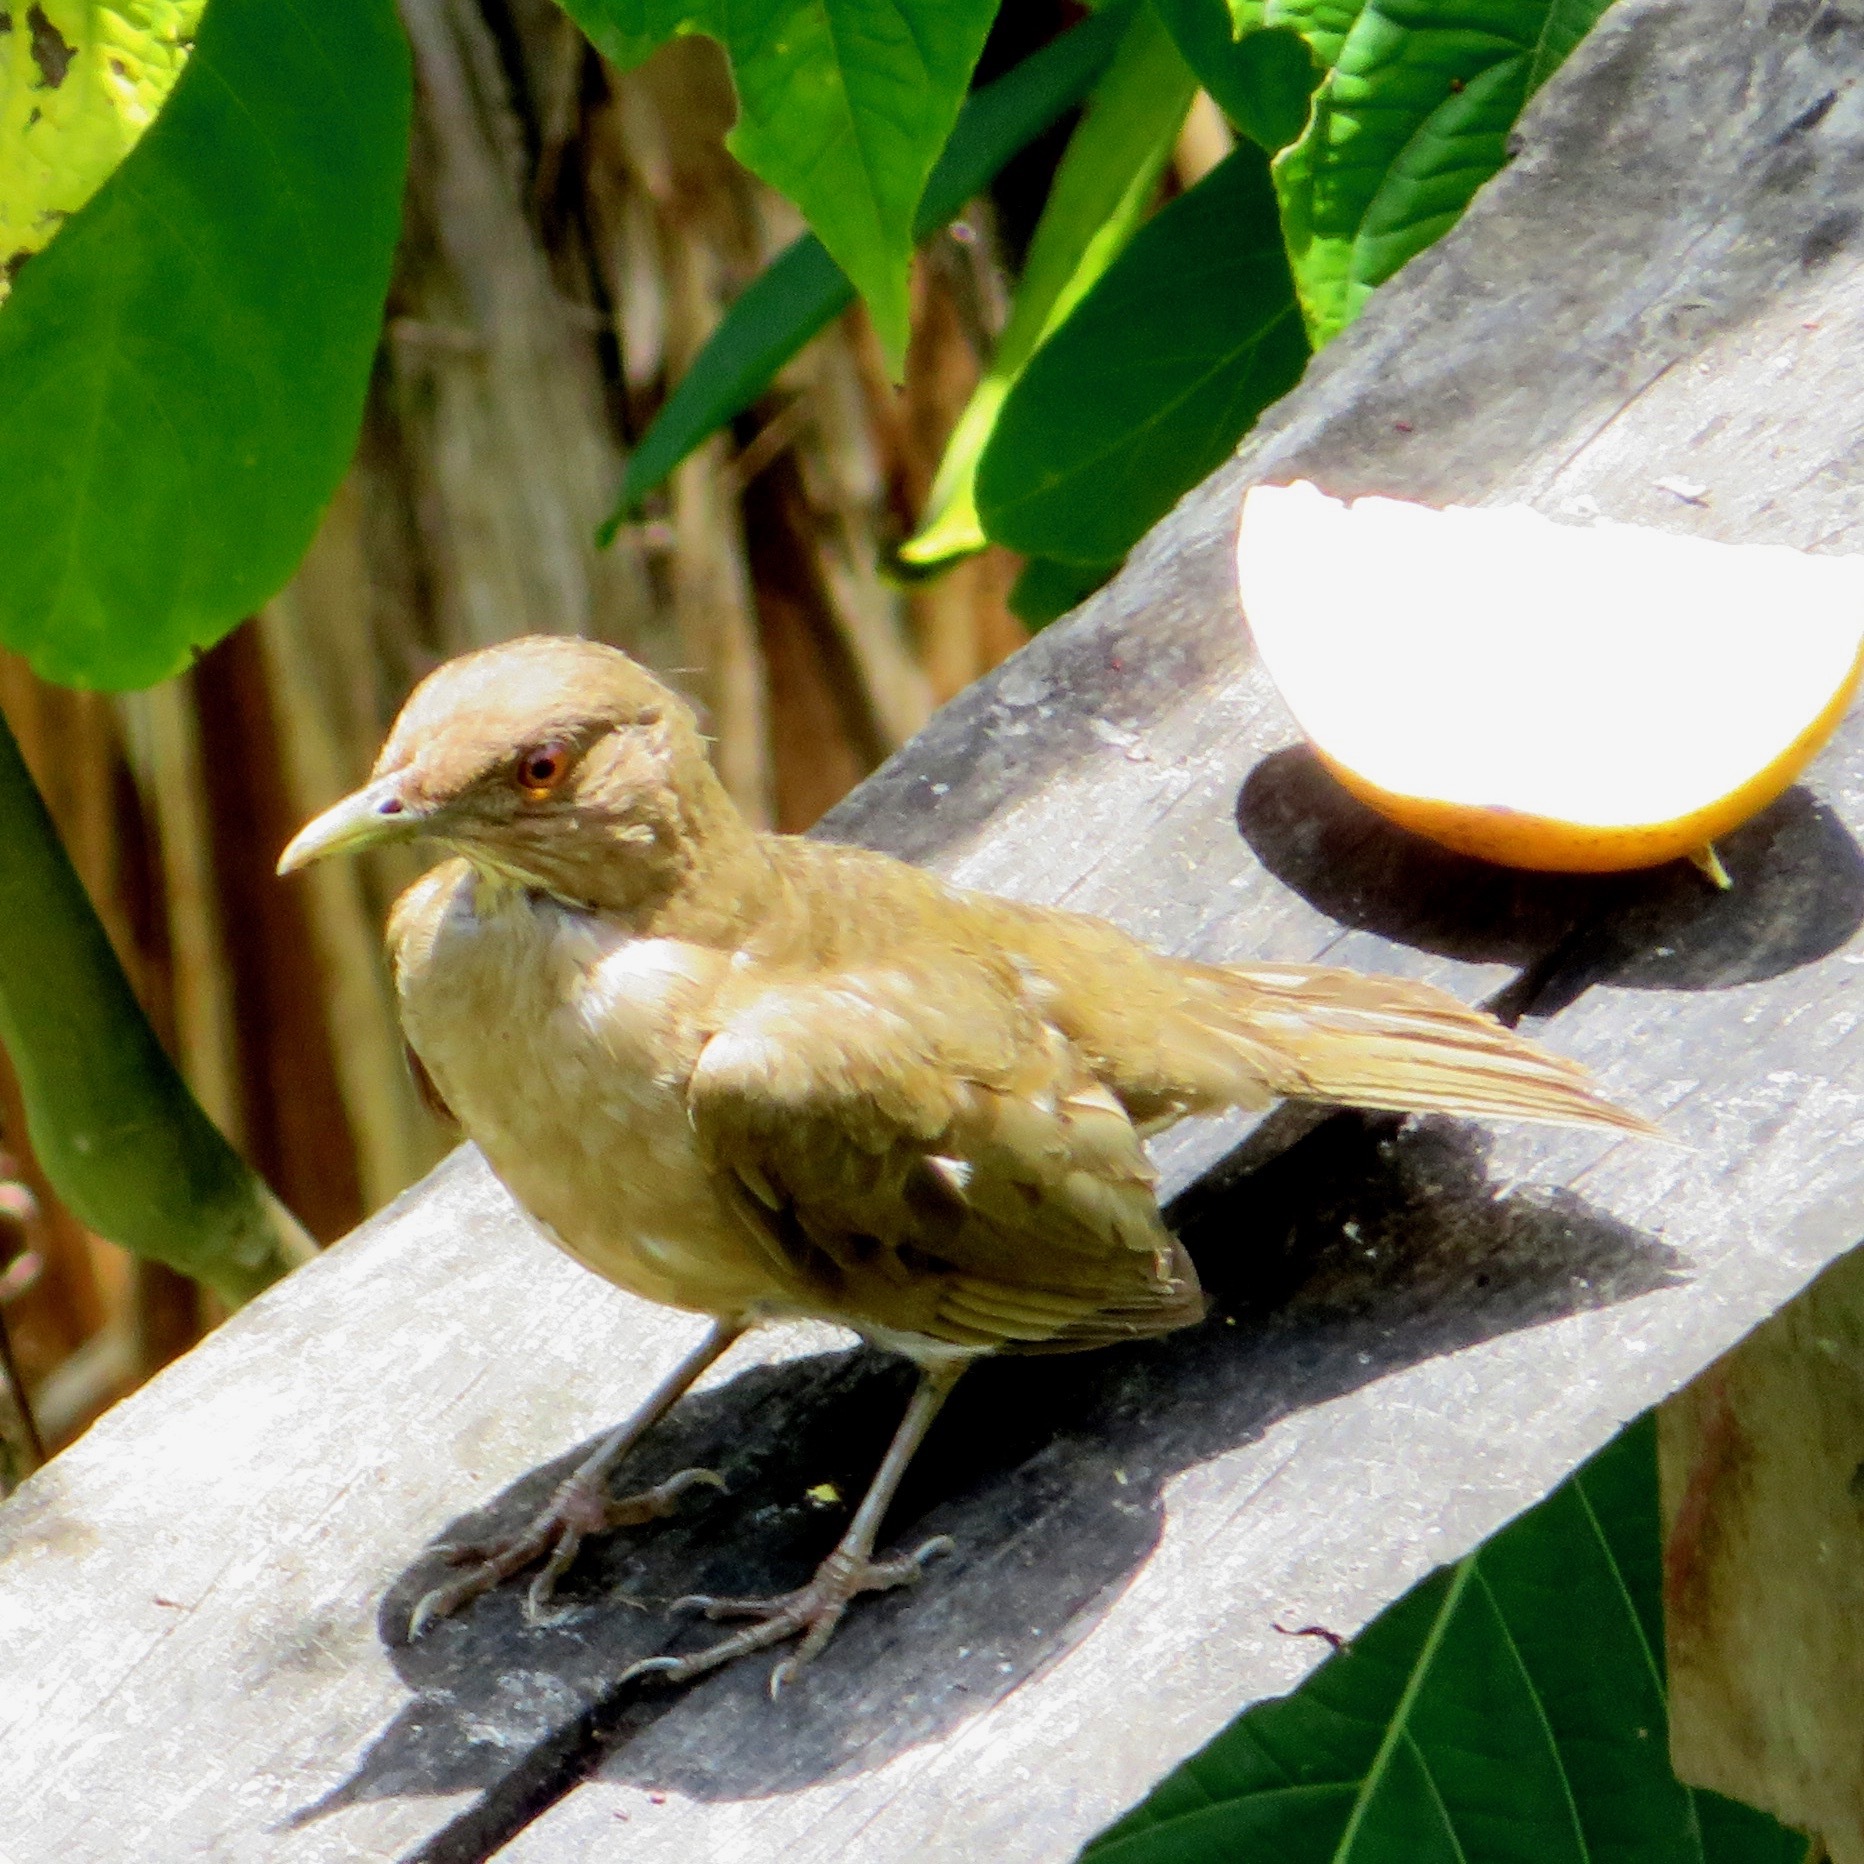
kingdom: Animalia
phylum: Chordata
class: Aves
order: Passeriformes
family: Turdidae
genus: Turdus
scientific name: Turdus grayi
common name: Clay-colored thrush
